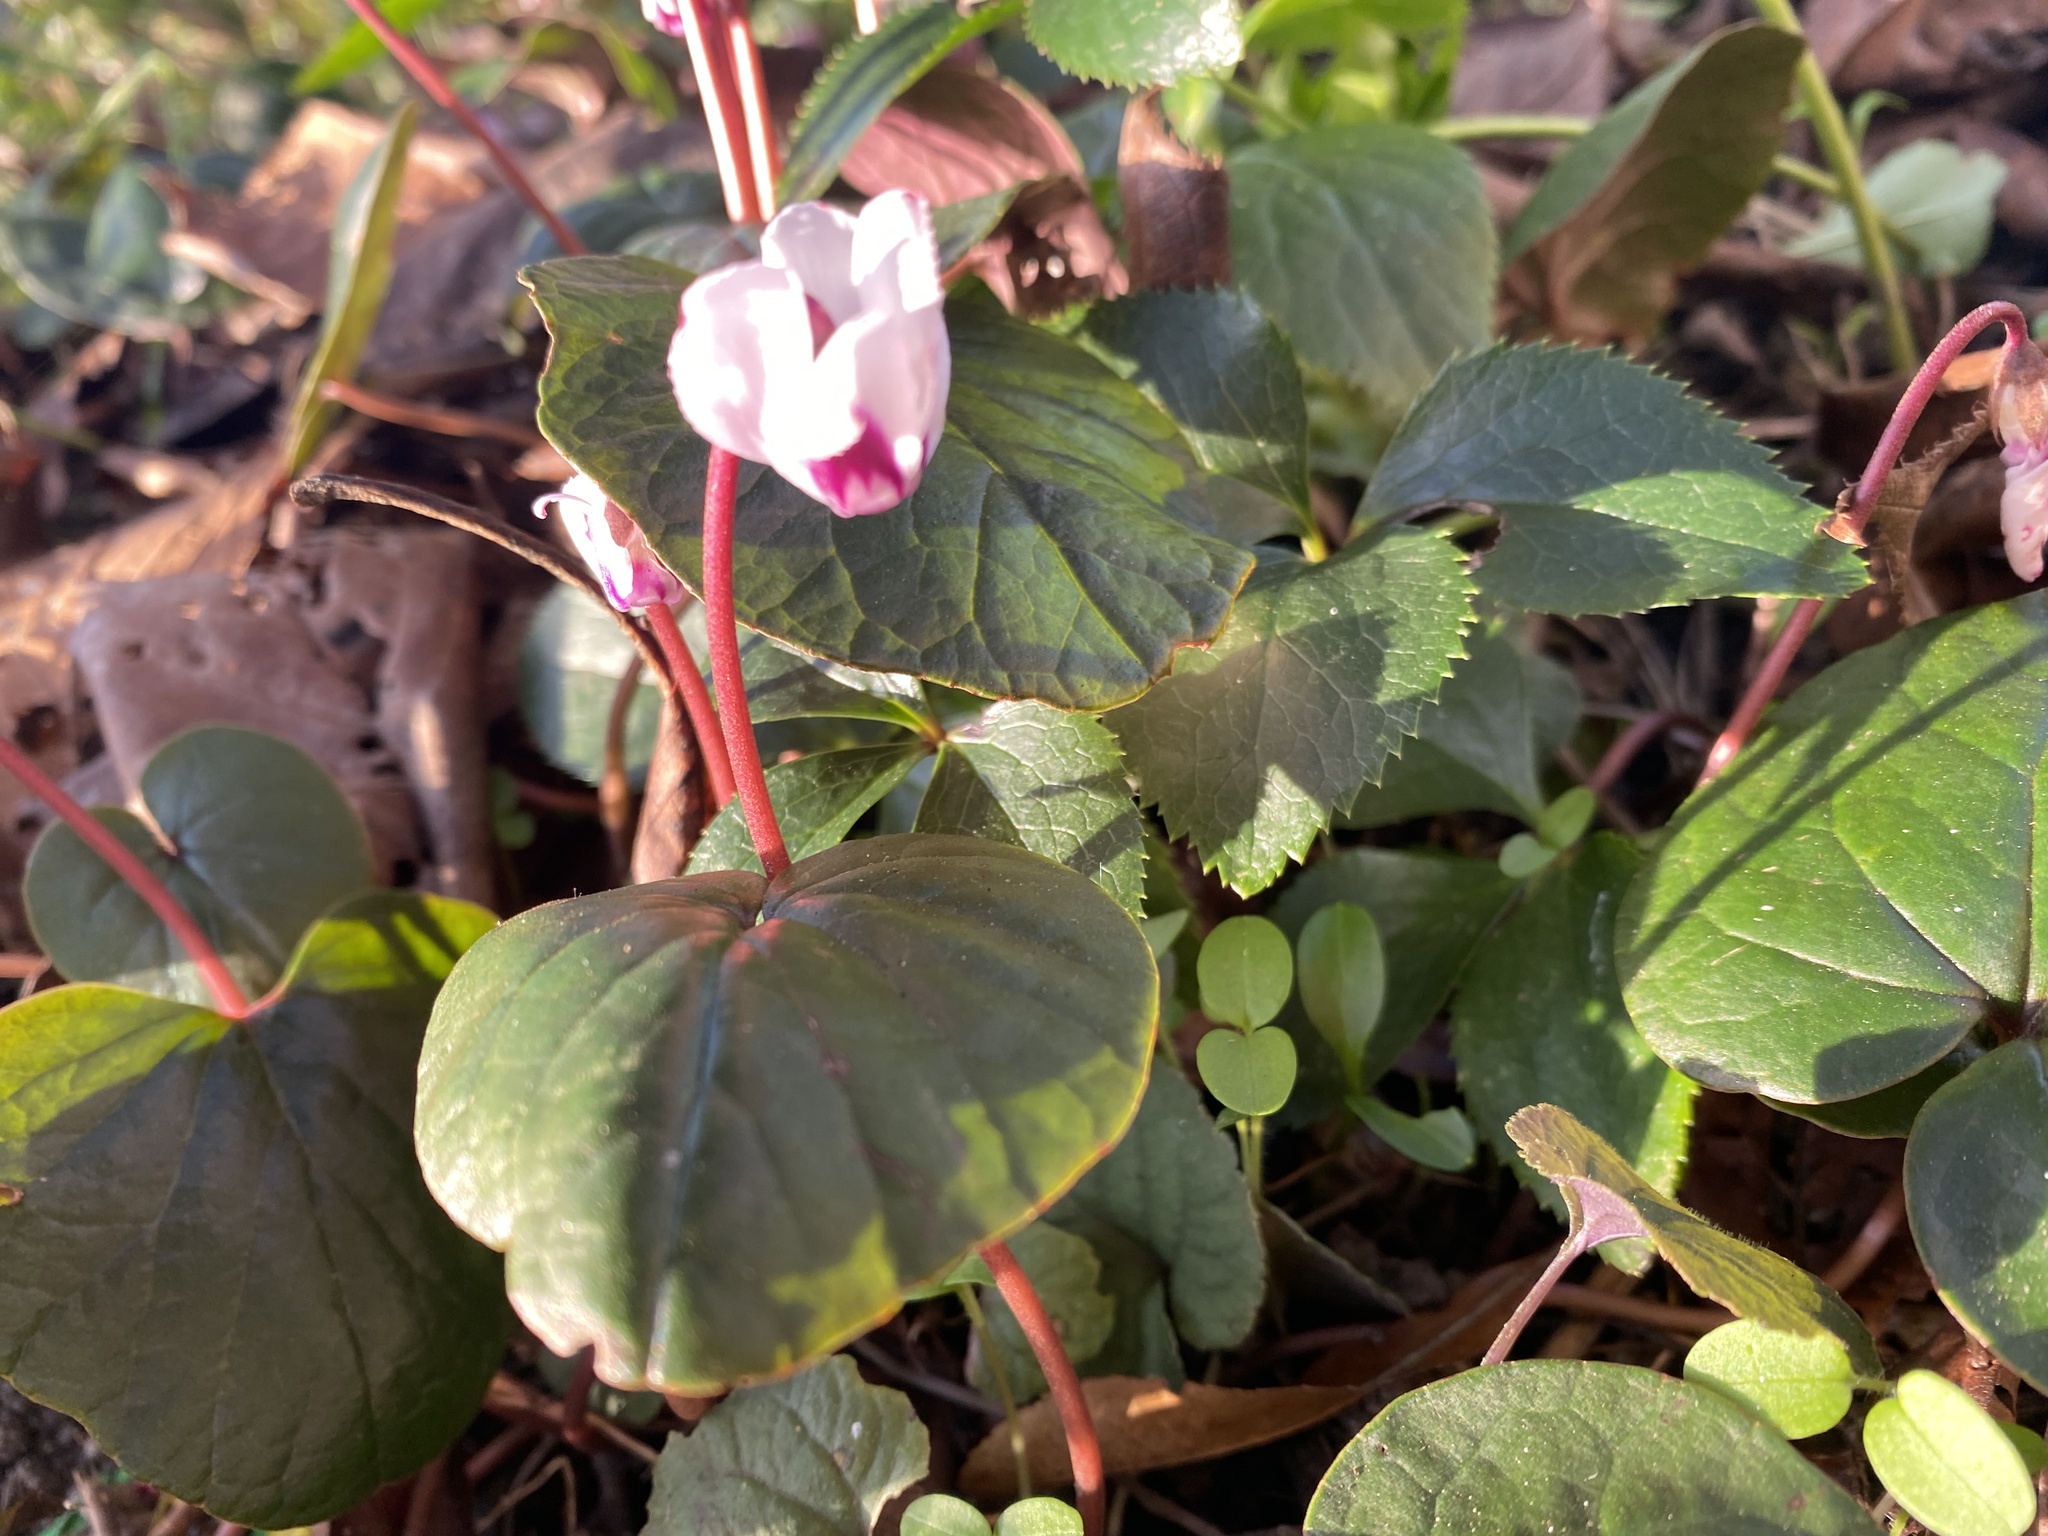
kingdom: Plantae
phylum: Tracheophyta
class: Magnoliopsida
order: Ericales
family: Primulaceae
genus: Cyclamen
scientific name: Cyclamen coum
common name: Eastern sowbread
